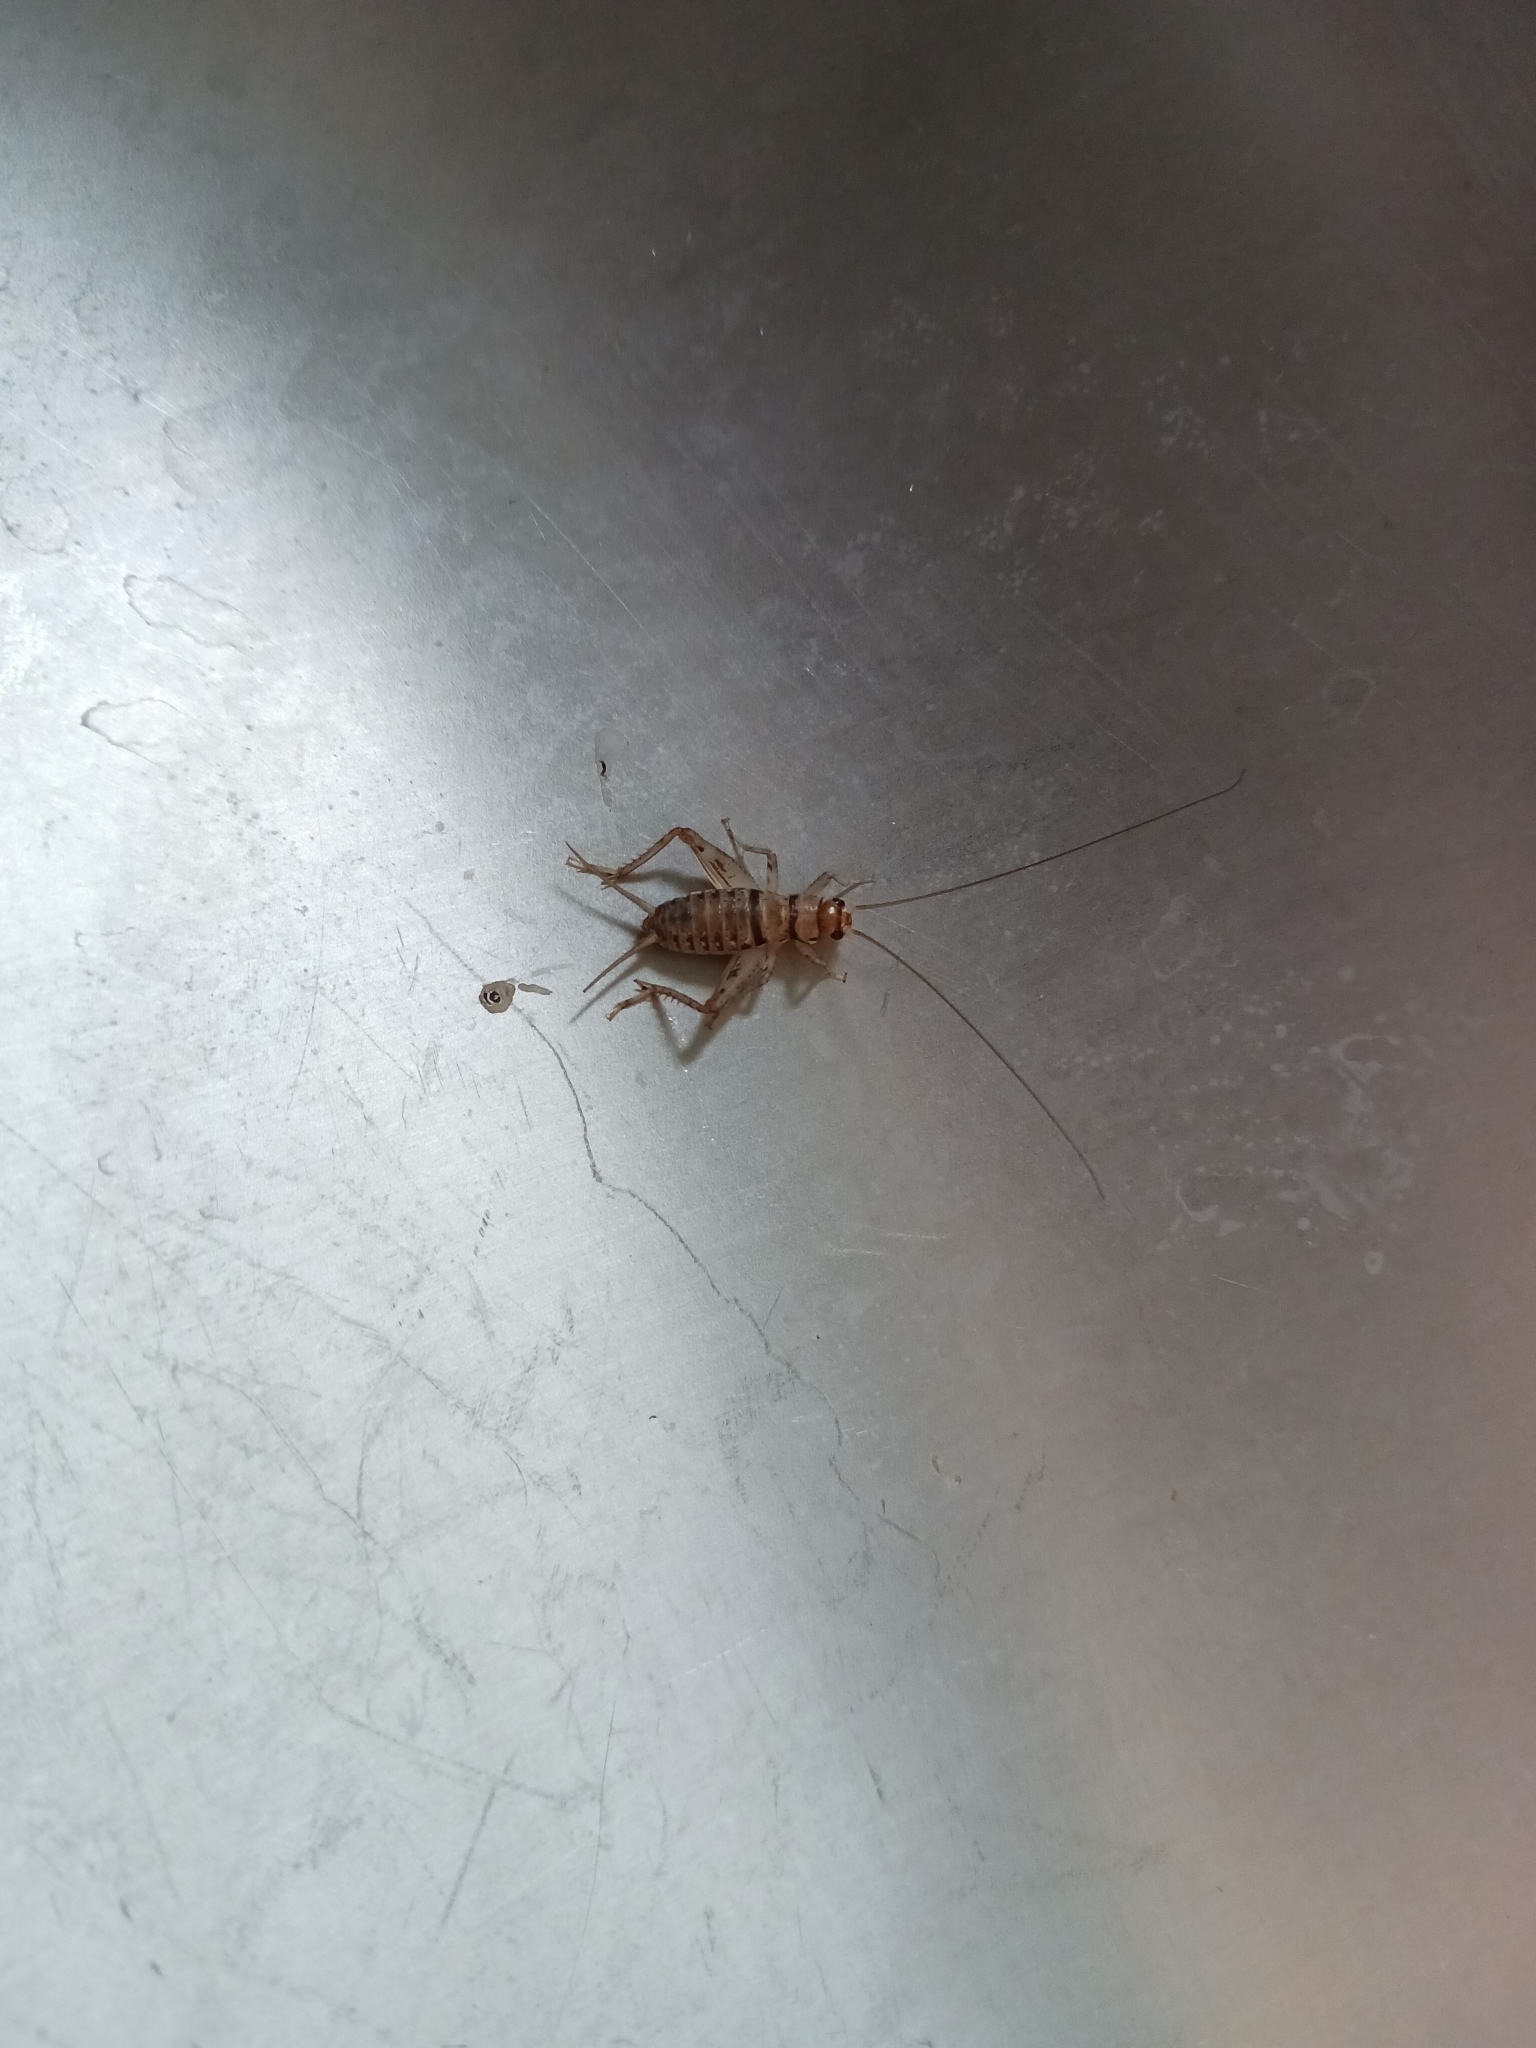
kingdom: Animalia
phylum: Arthropoda
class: Insecta
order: Orthoptera
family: Gryllidae
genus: Gryllodes
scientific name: Gryllodes sigillatus
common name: Tropical house cricket
